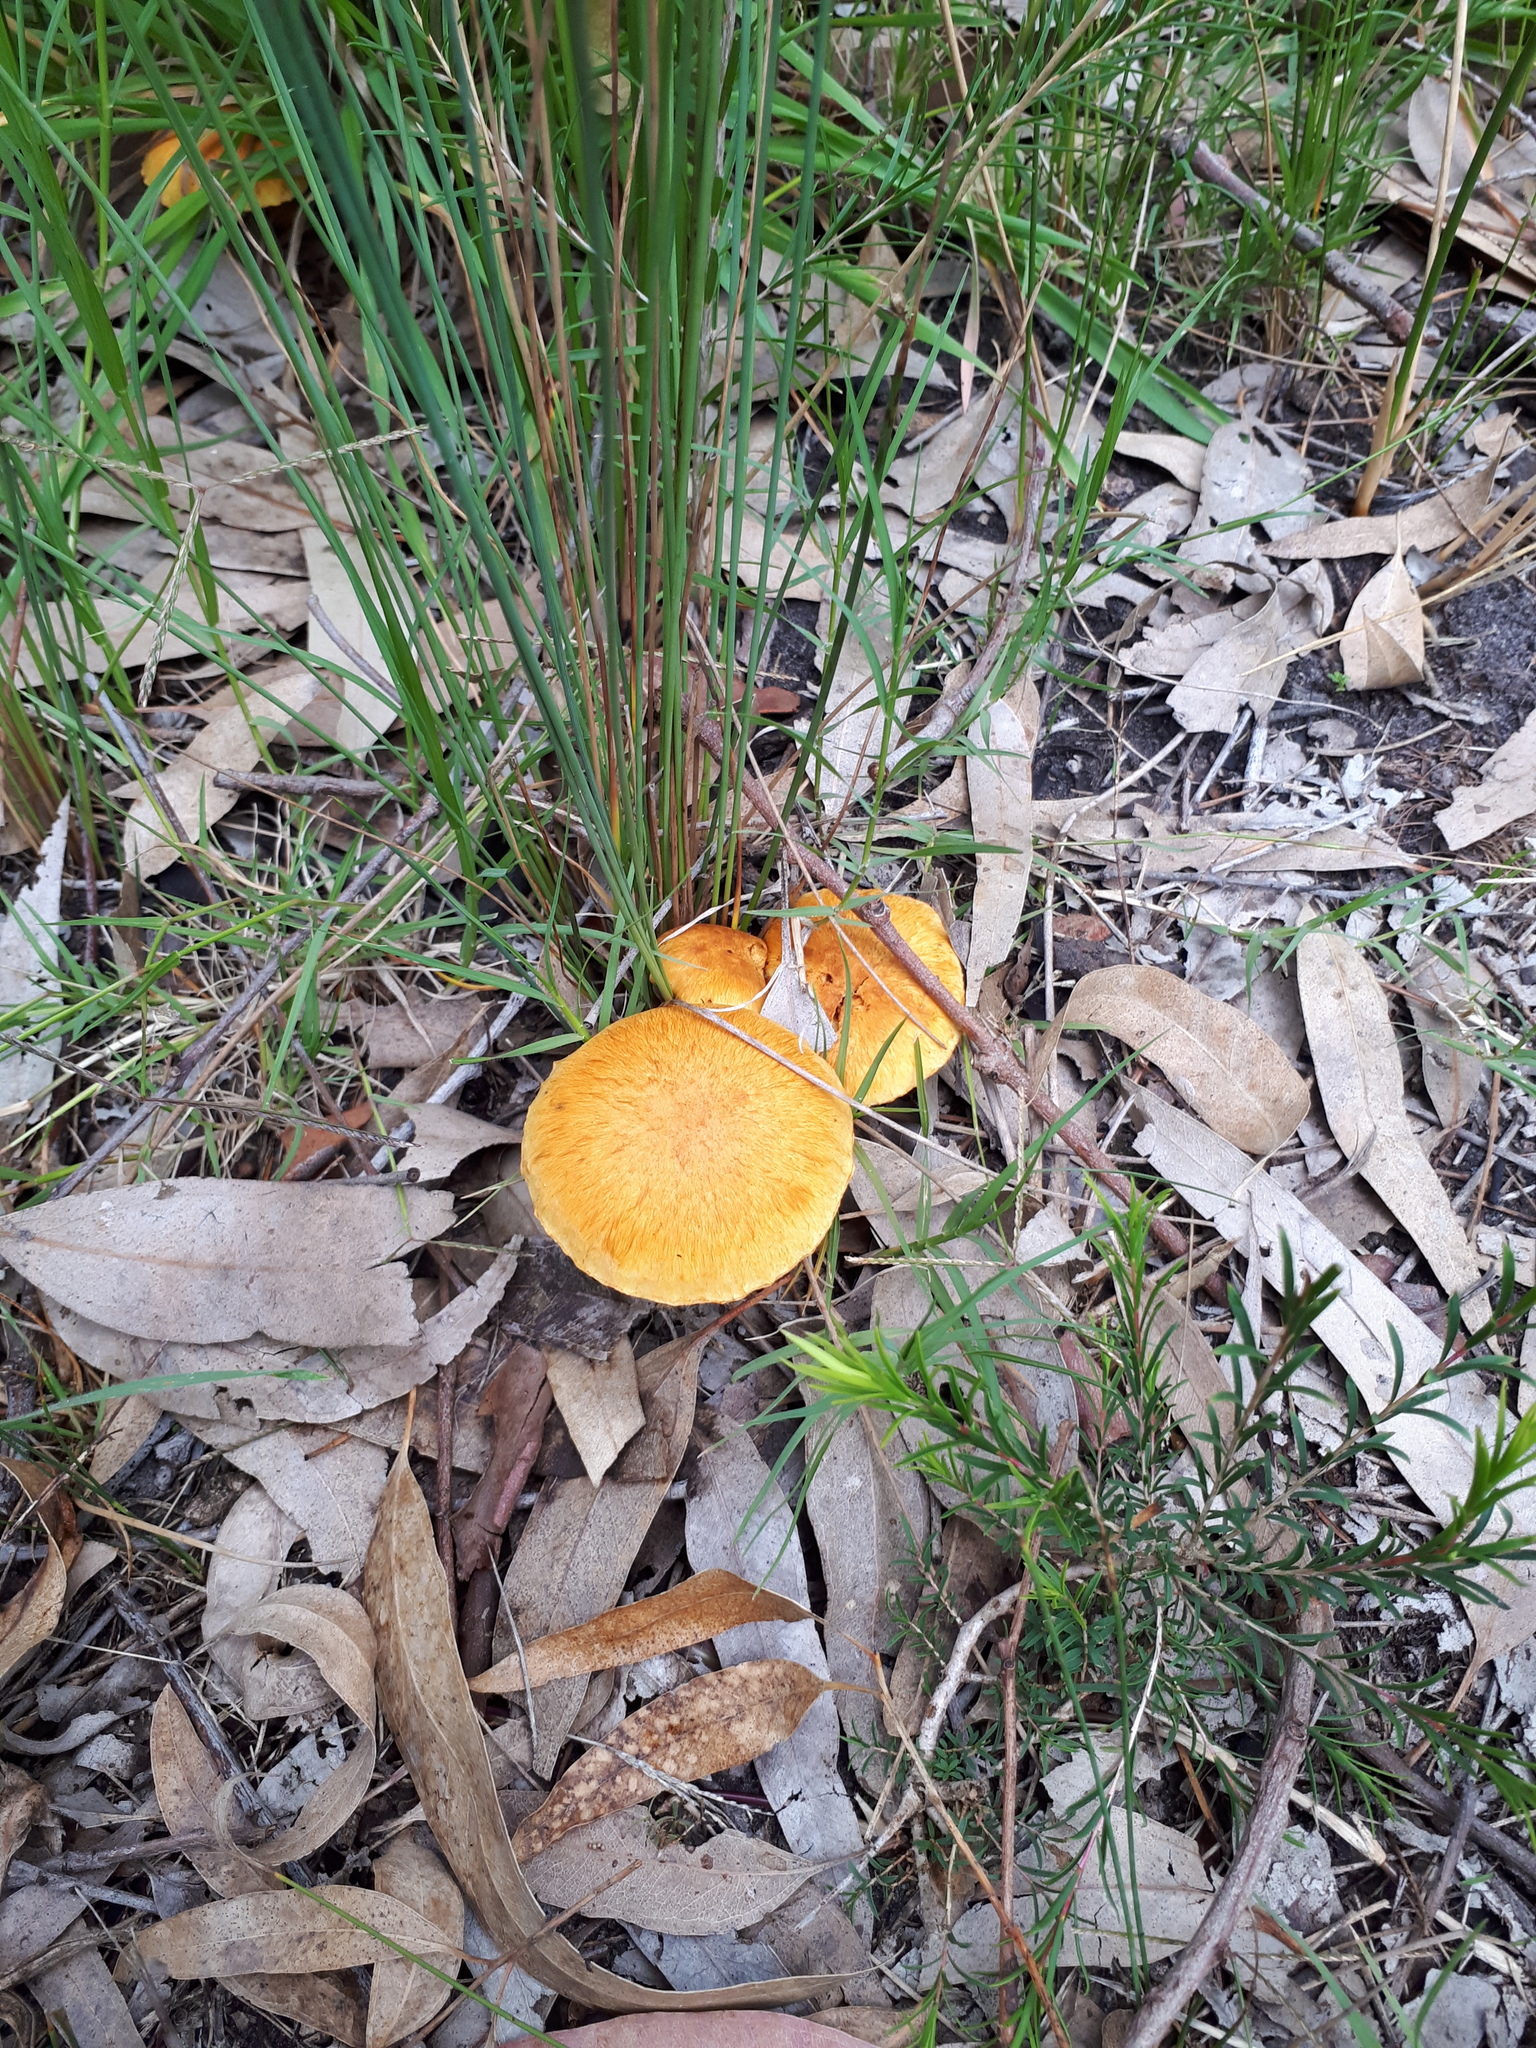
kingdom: Fungi
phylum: Basidiomycota
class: Agaricomycetes
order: Agaricales
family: Hymenogastraceae
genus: Gymnopilus
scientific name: Gymnopilus junonius
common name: Spectacular rustgill
